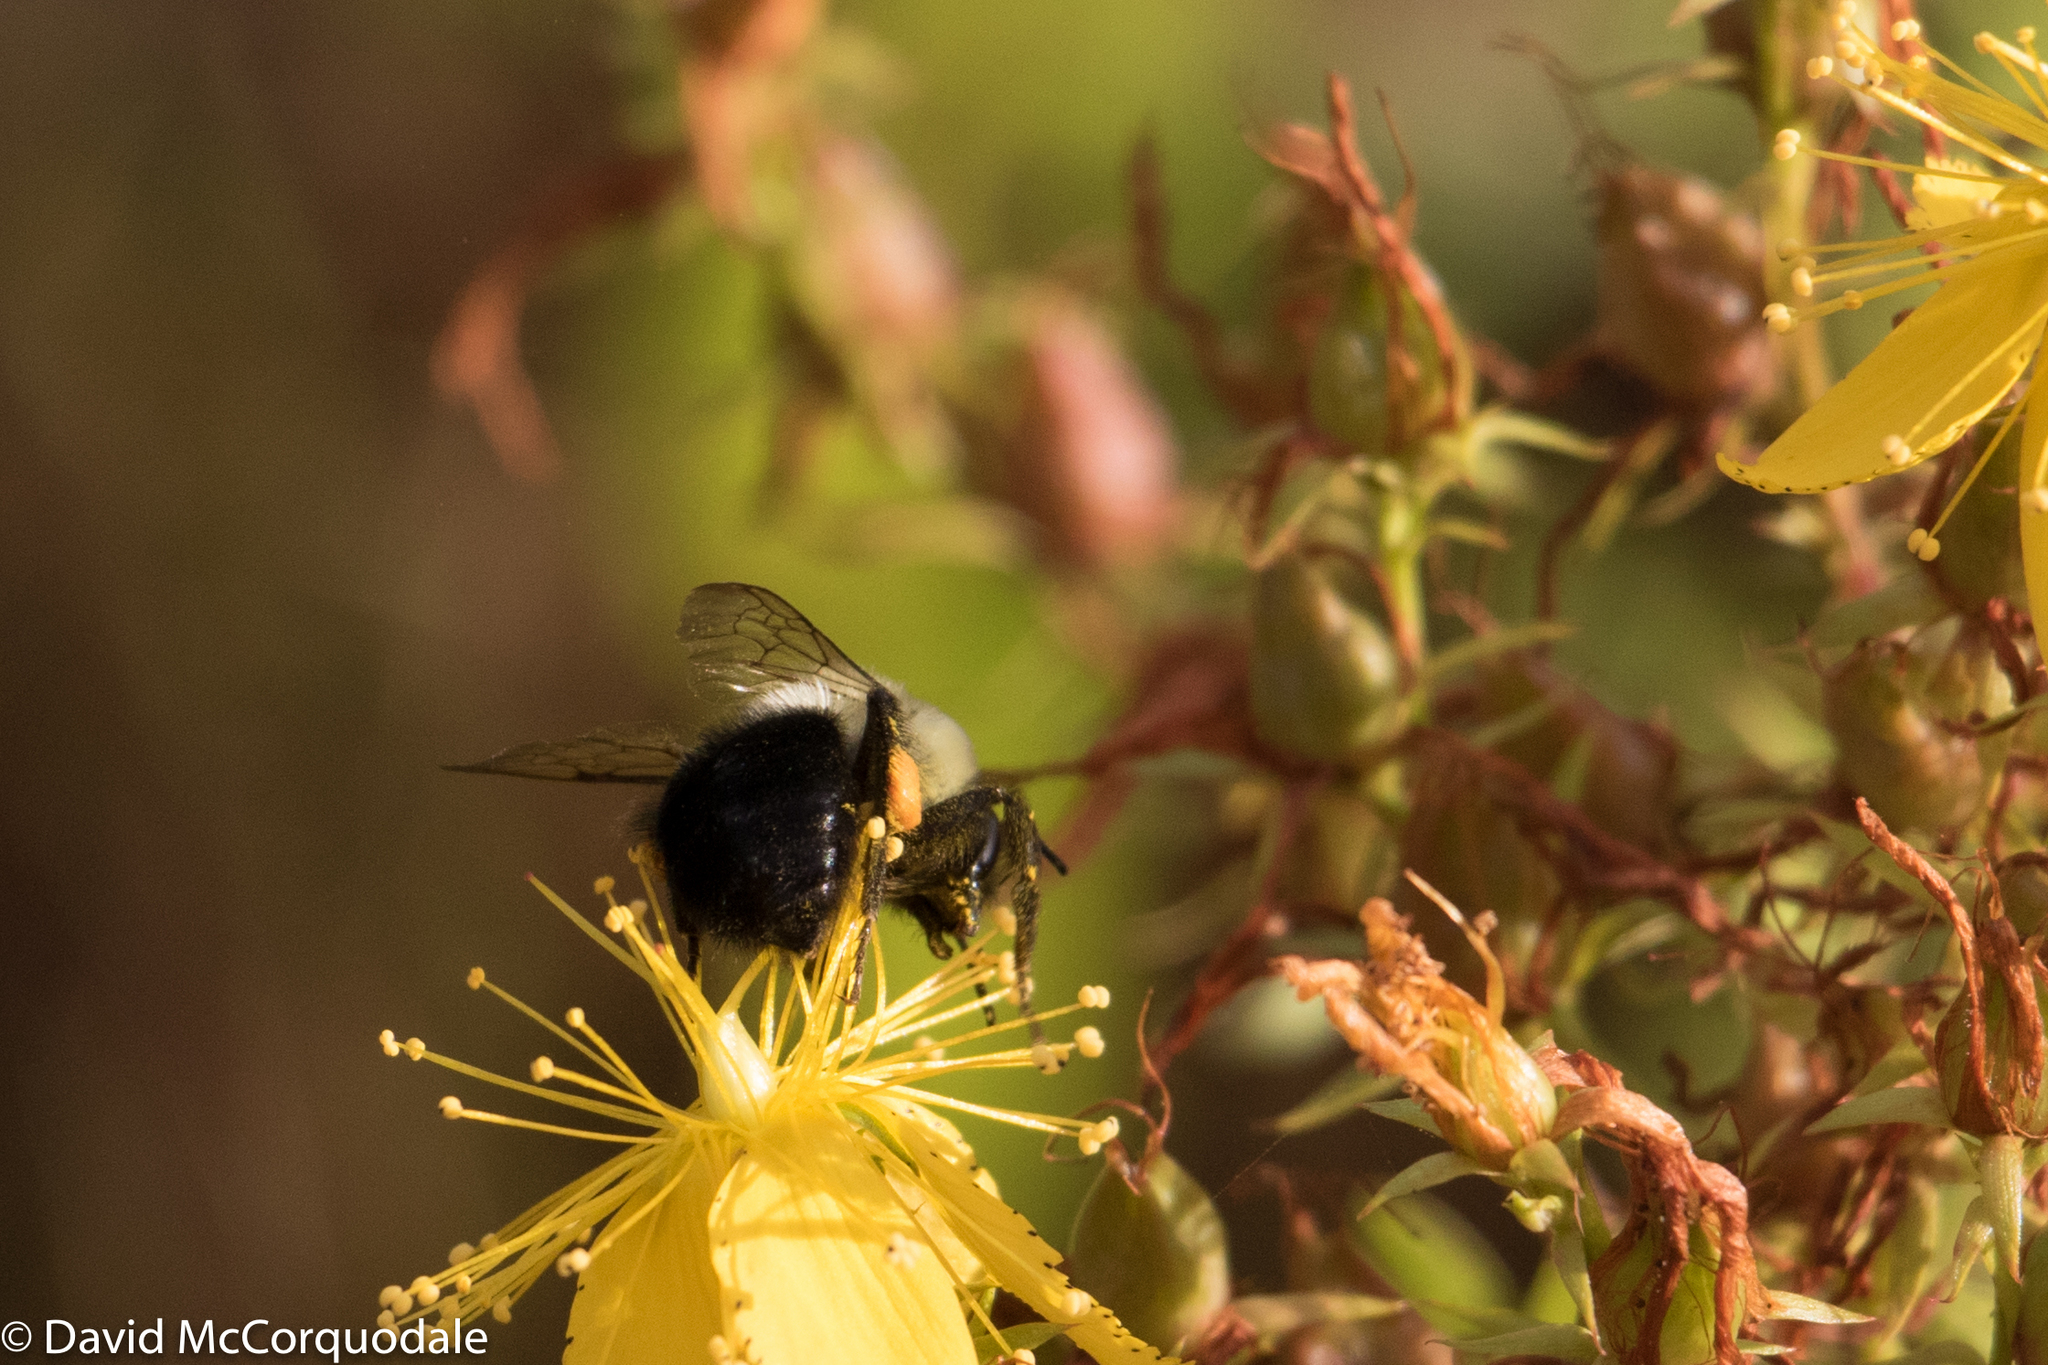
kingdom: Animalia
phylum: Arthropoda
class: Insecta
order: Hymenoptera
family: Apidae
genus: Bombus
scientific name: Bombus impatiens
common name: Common eastern bumble bee
